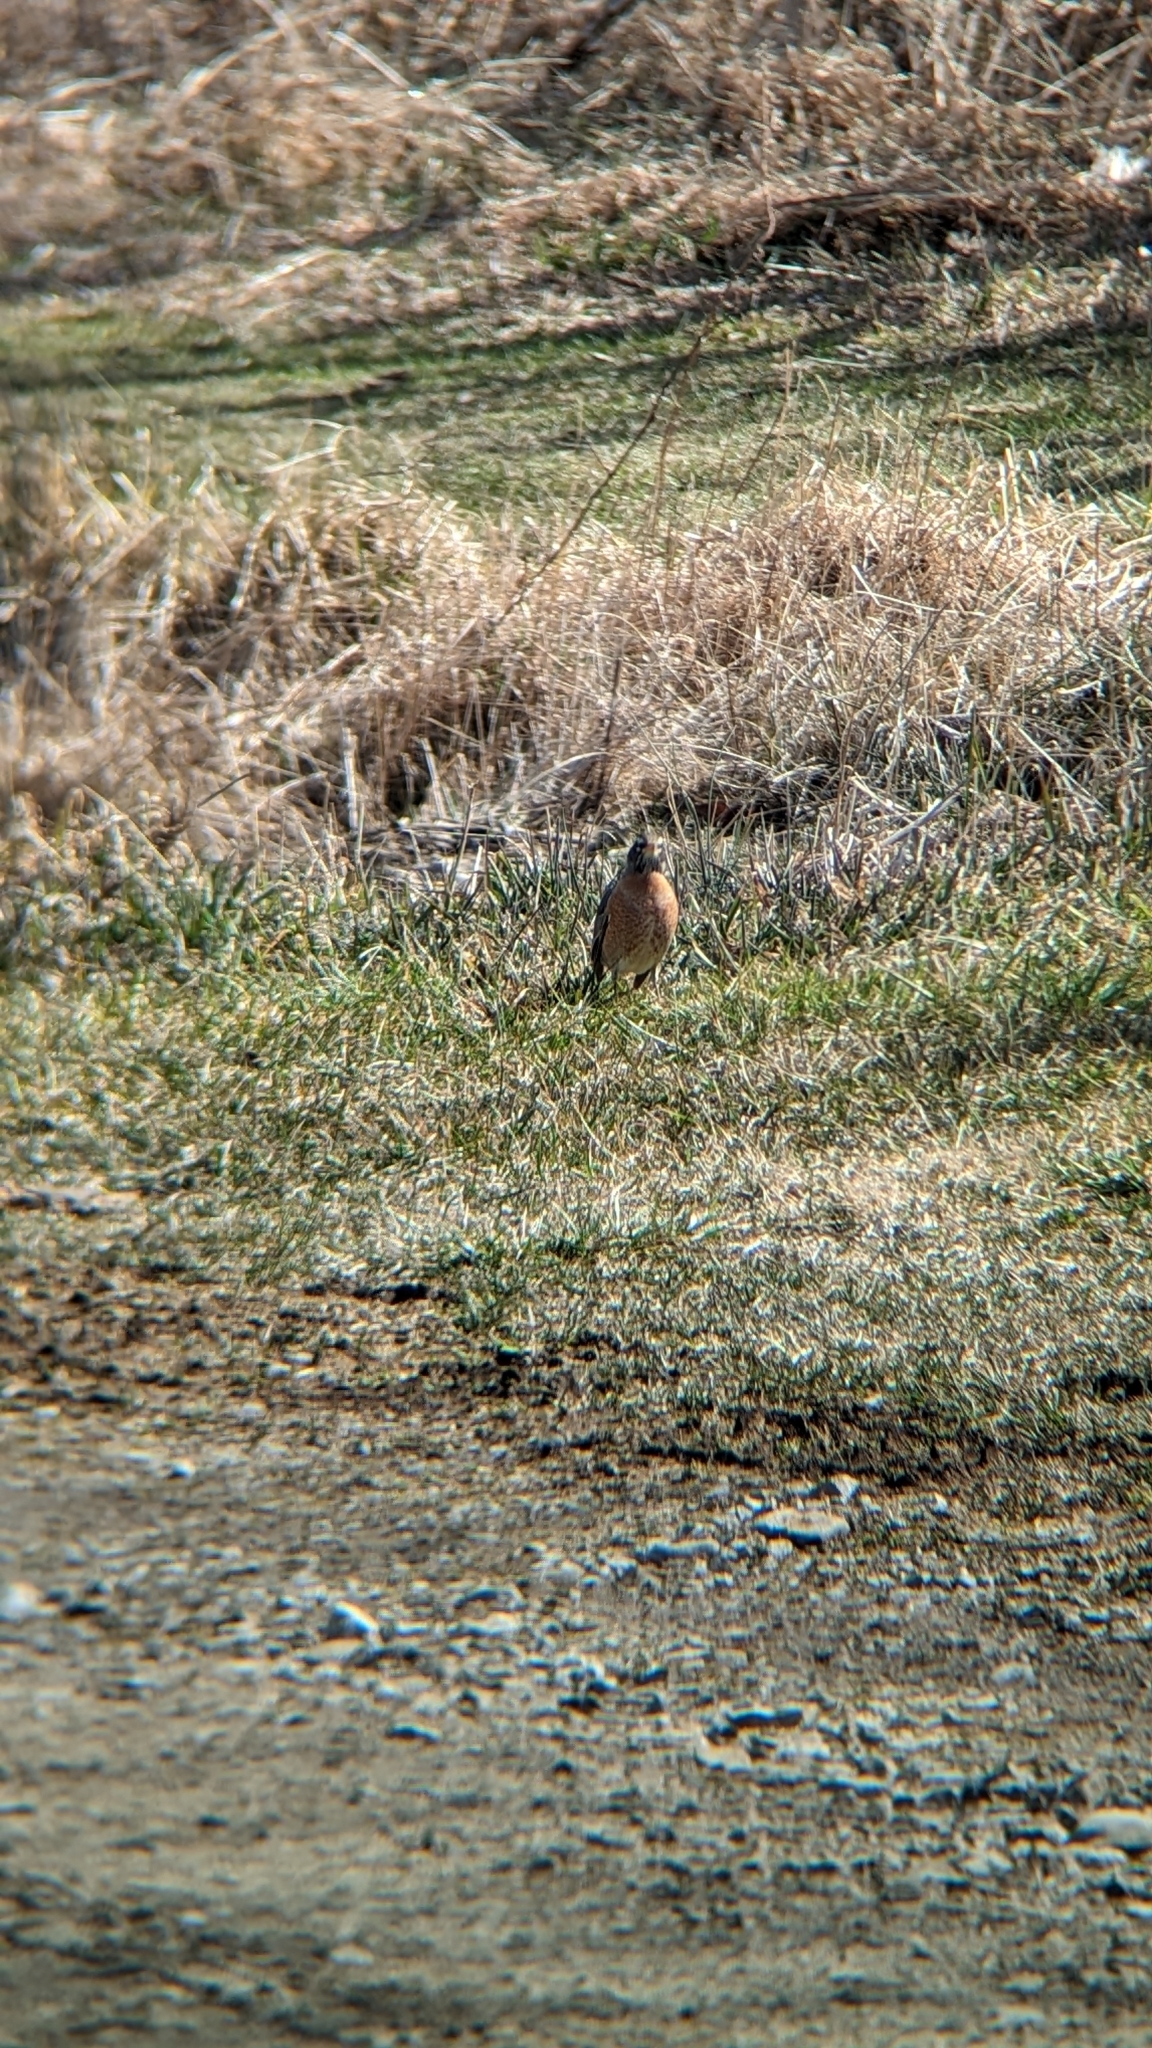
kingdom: Animalia
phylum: Chordata
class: Aves
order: Passeriformes
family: Turdidae
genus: Turdus
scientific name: Turdus migratorius
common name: American robin
